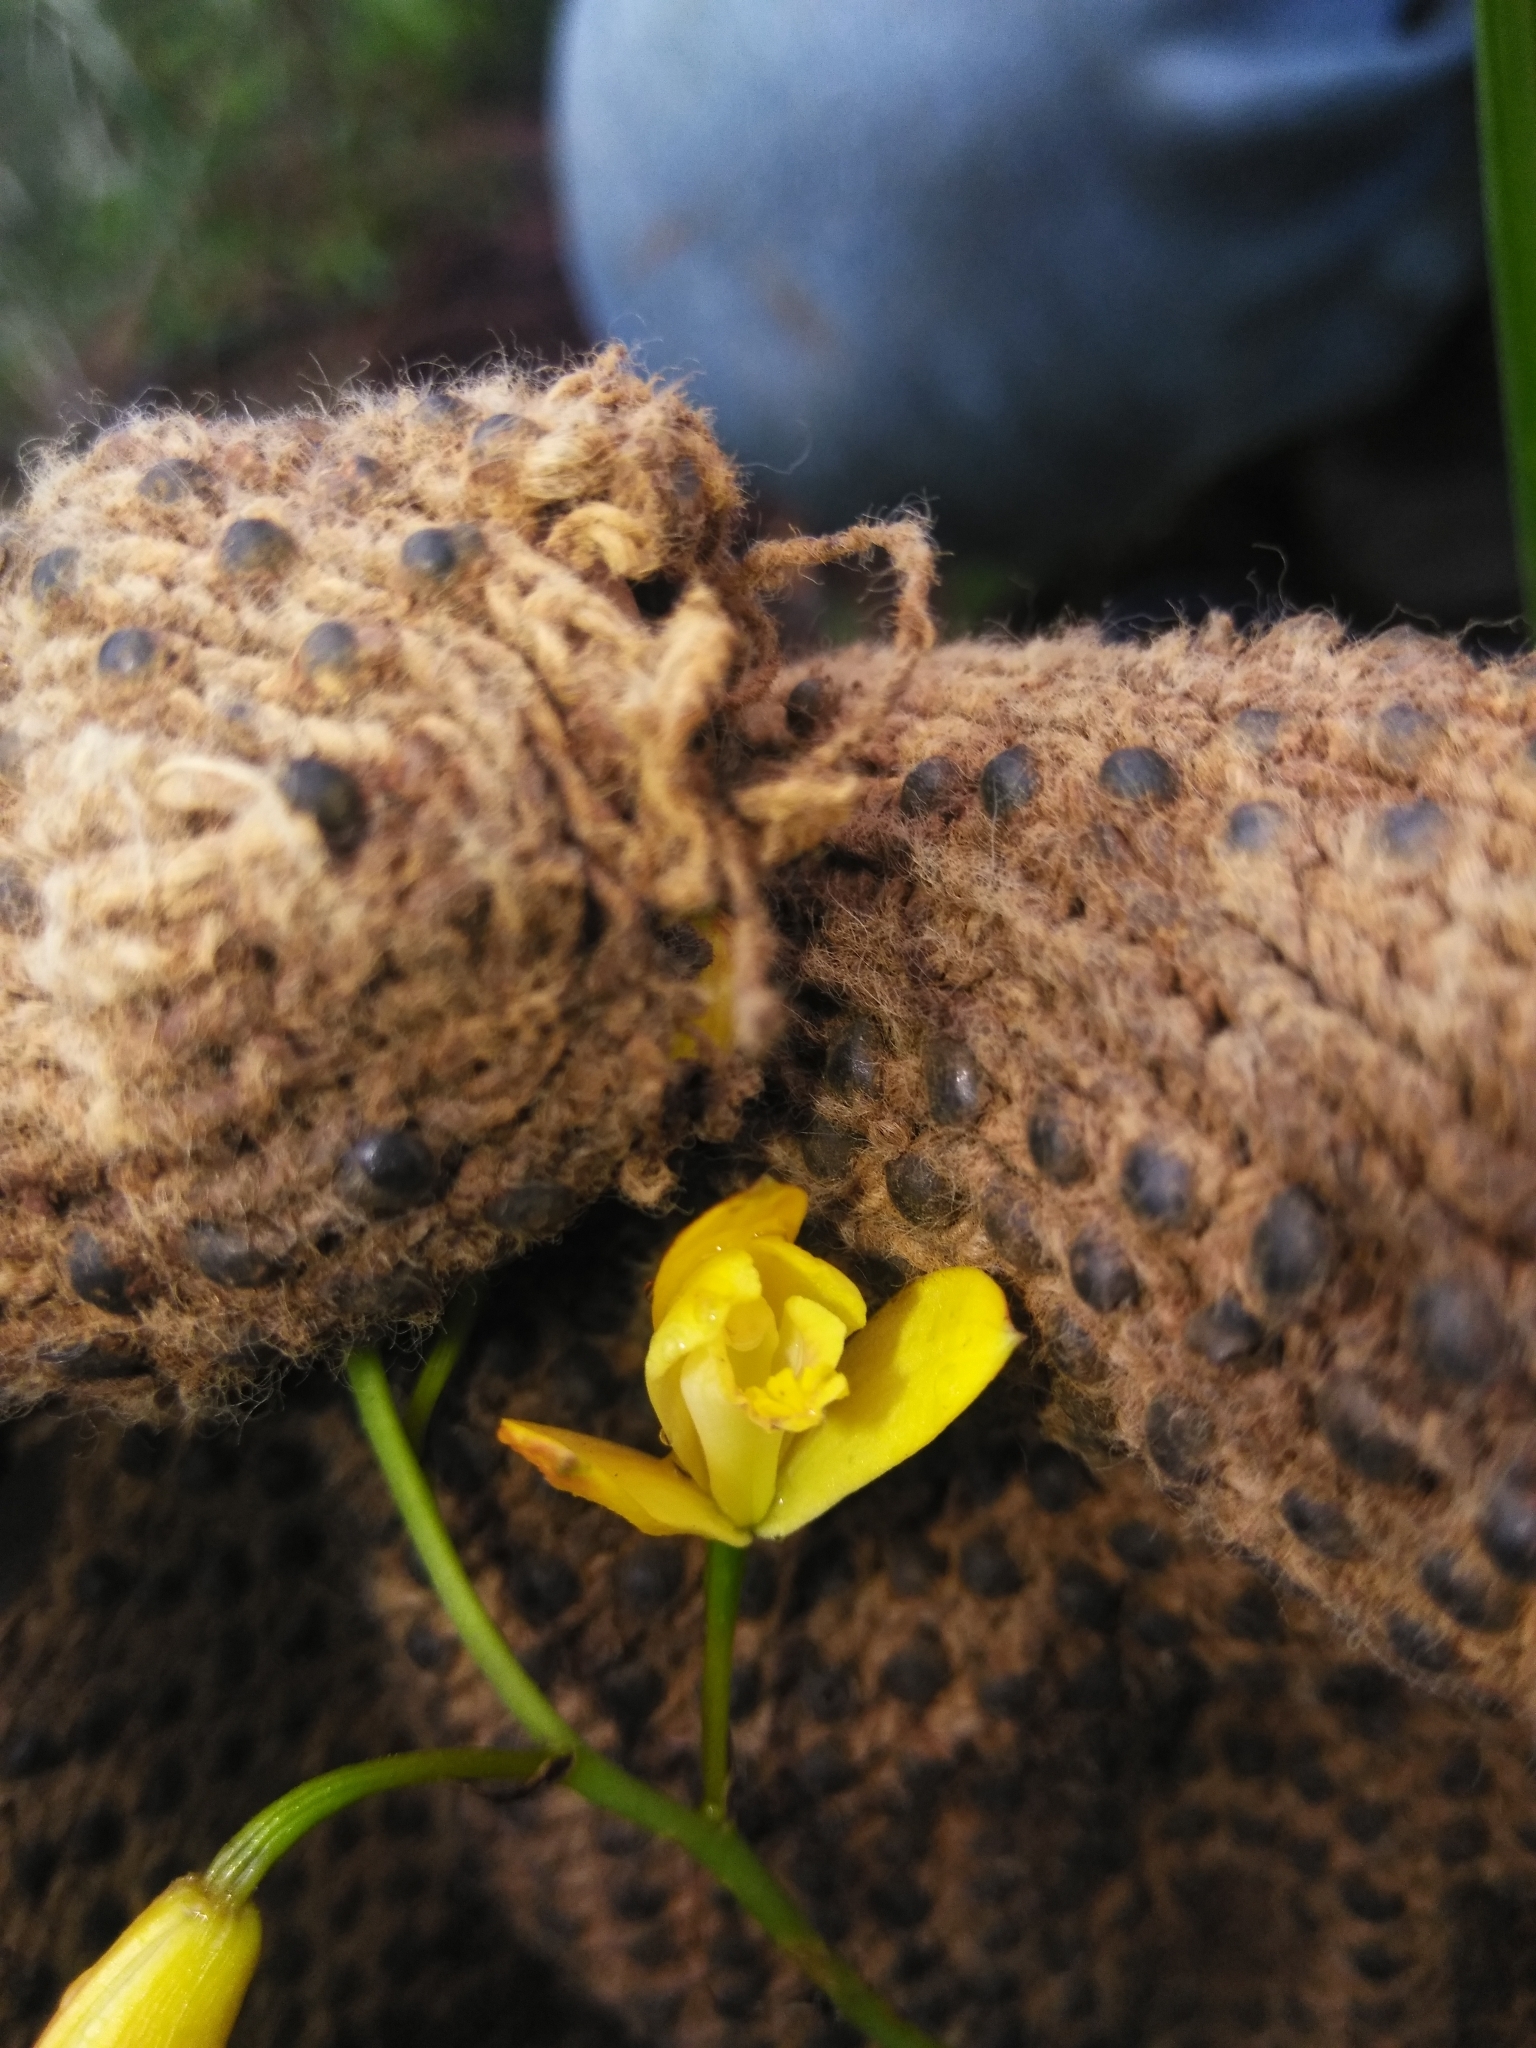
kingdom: Plantae
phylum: Tracheophyta
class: Liliopsida
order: Asparagales
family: Orchidaceae
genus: Bletia
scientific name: Bletia adenocarpa
